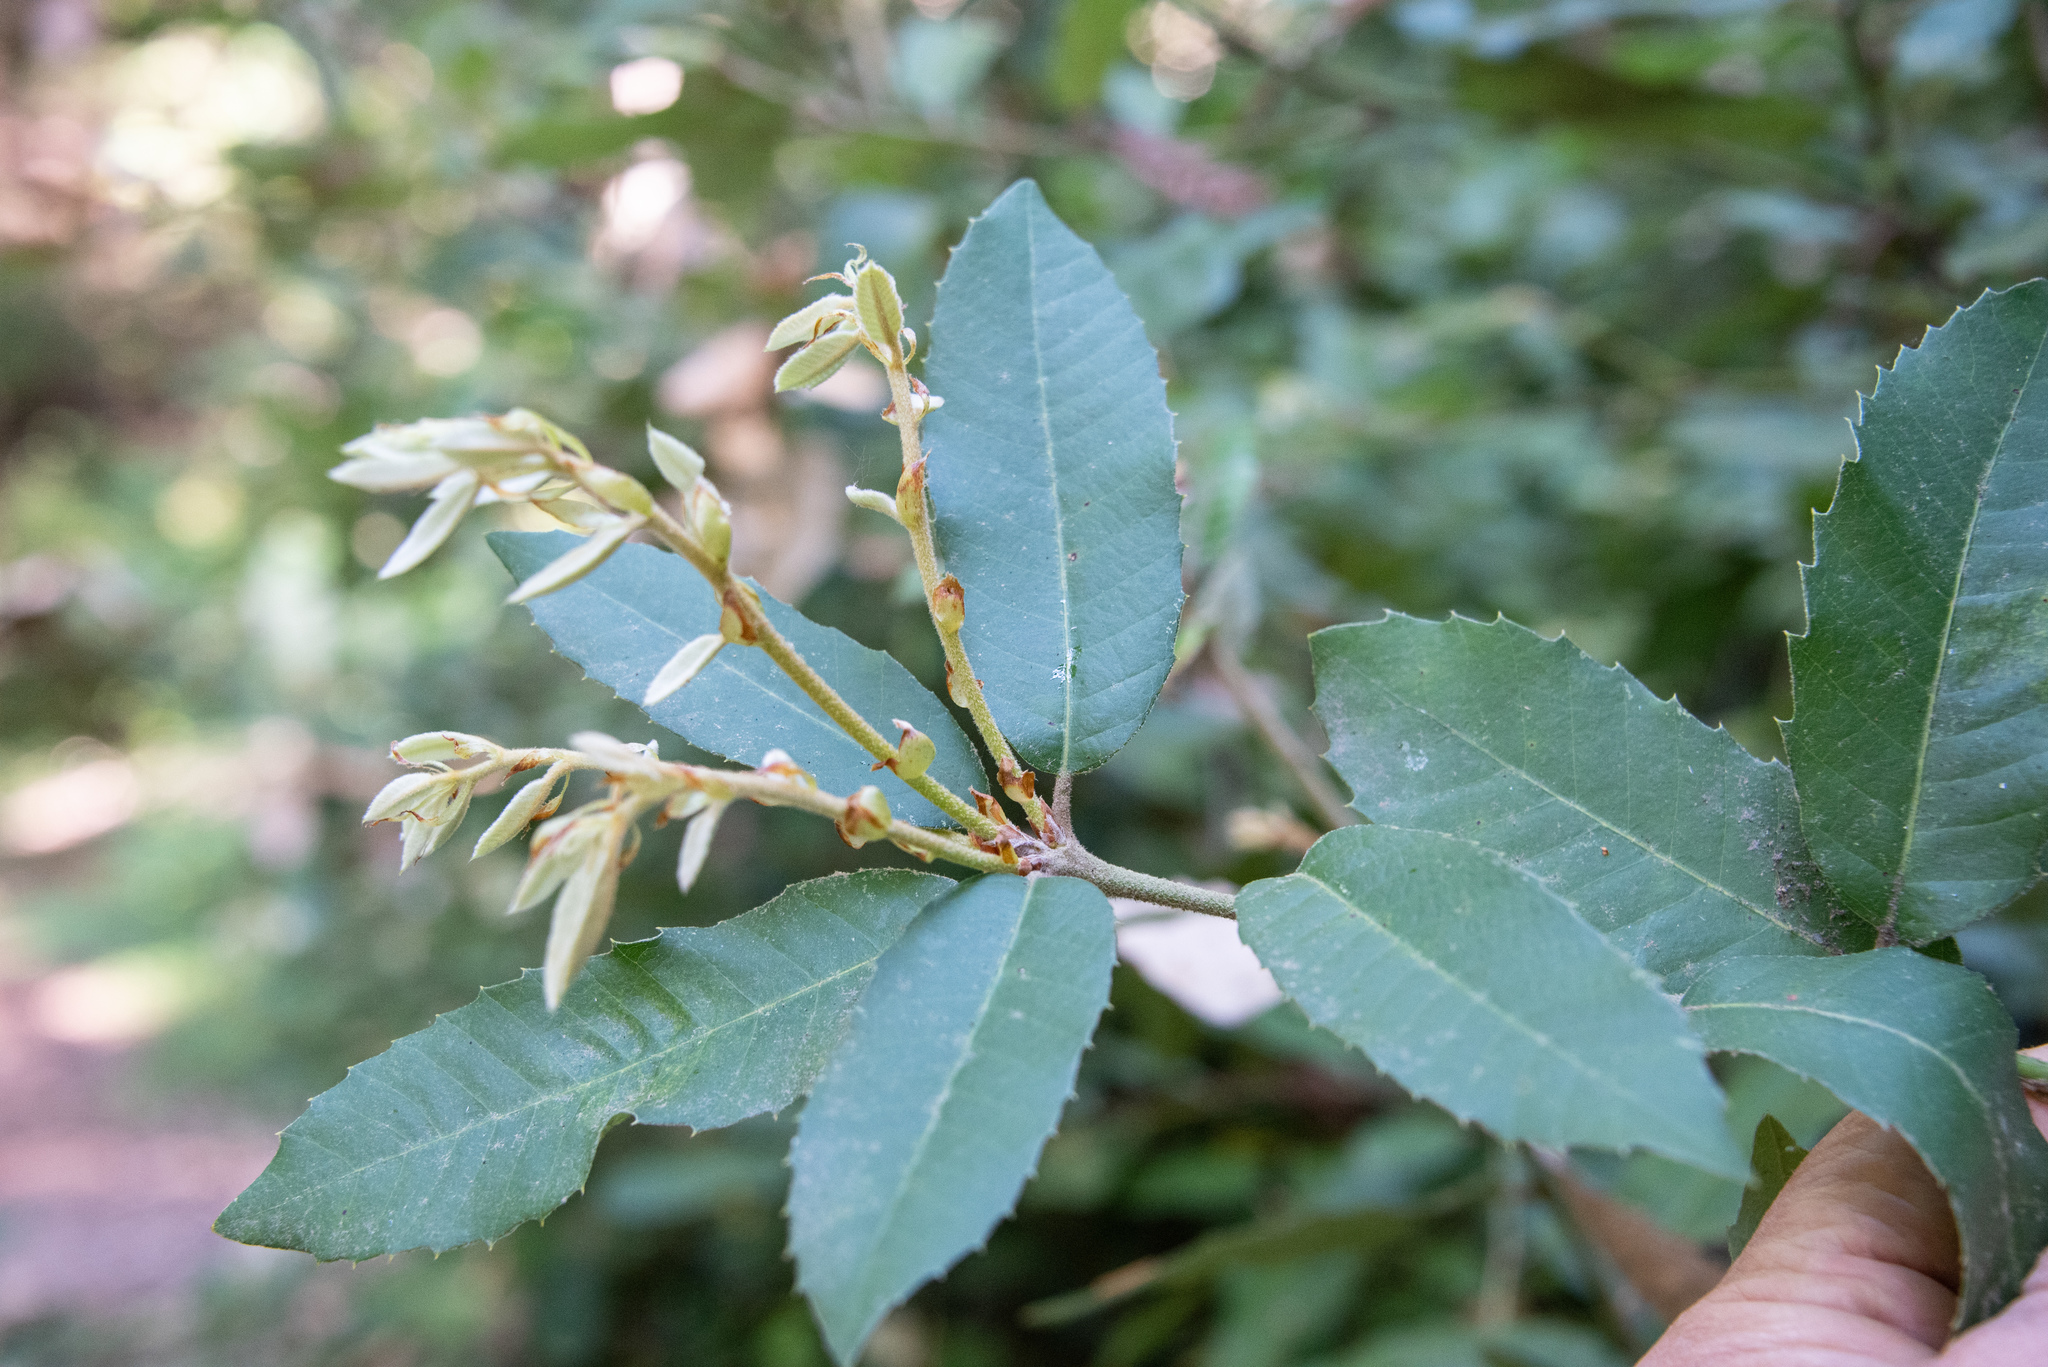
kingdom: Plantae
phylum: Tracheophyta
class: Magnoliopsida
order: Fagales
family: Fagaceae
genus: Notholithocarpus
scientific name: Notholithocarpus densiflorus
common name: Tan bark oak
